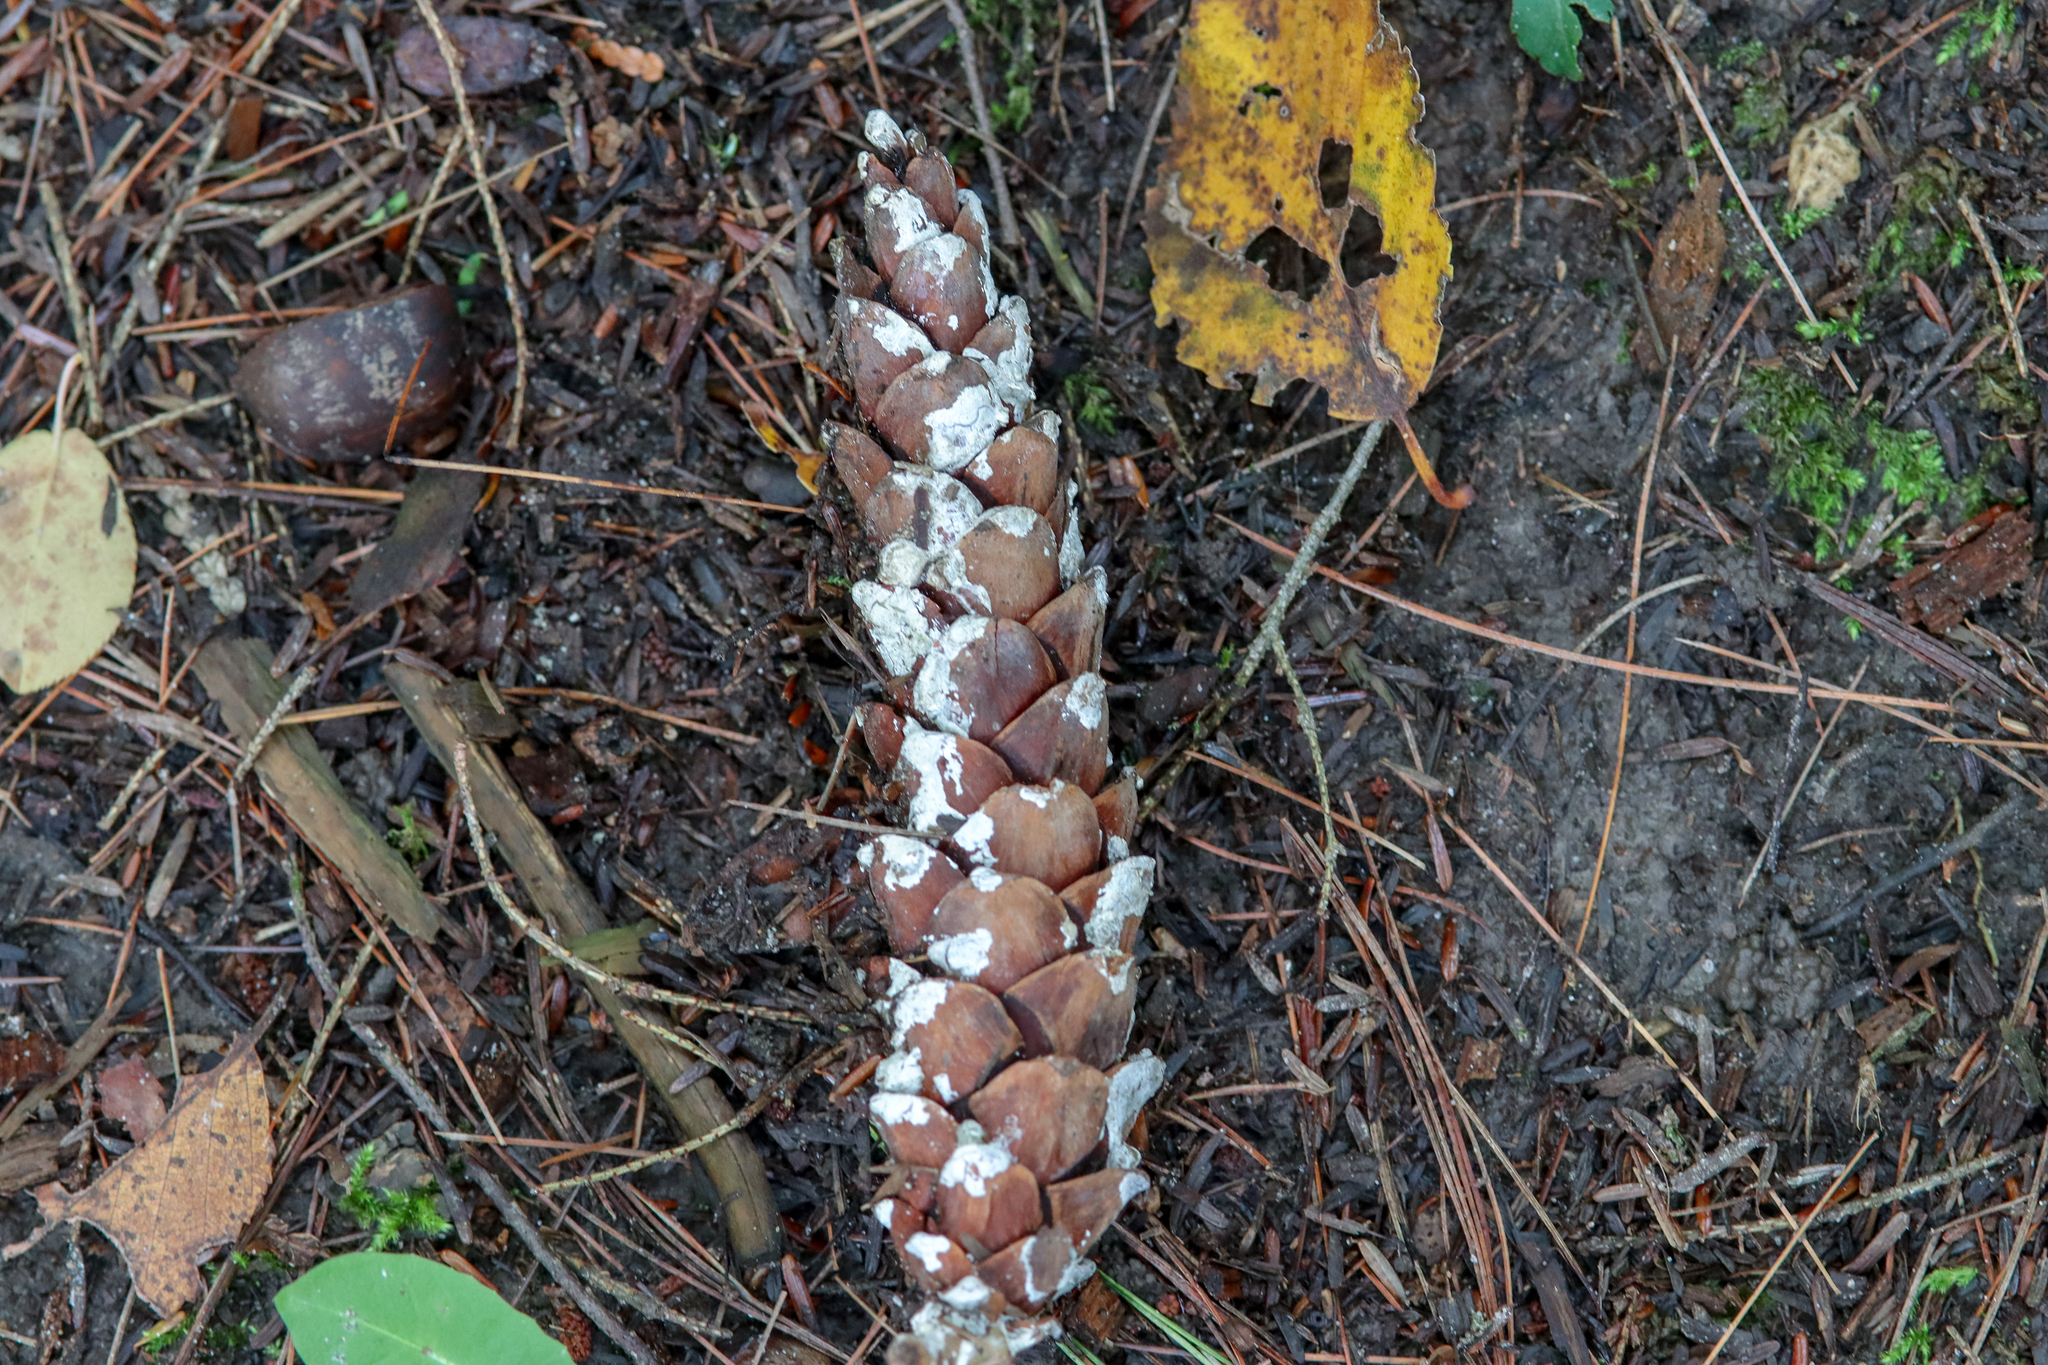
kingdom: Plantae
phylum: Tracheophyta
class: Pinopsida
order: Pinales
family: Pinaceae
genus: Pinus
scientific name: Pinus strobus
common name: Weymouth pine
